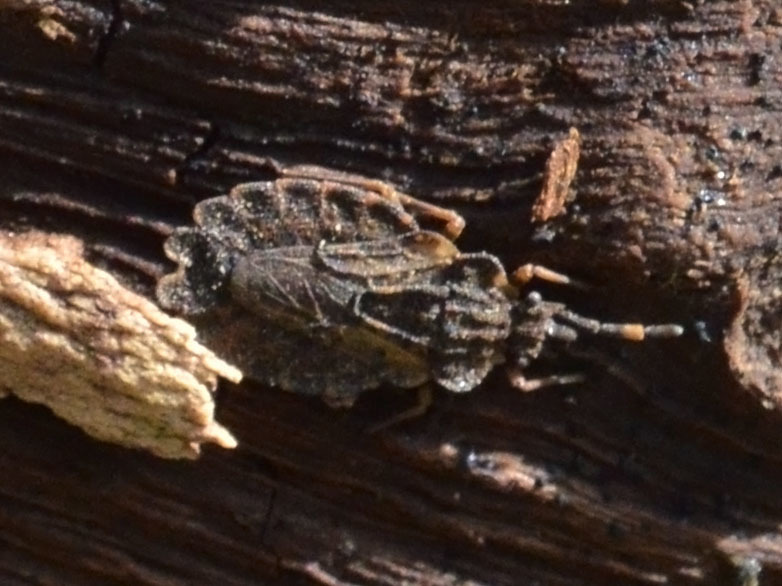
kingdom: Animalia
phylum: Arthropoda
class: Insecta
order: Hemiptera
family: Aradidae
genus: Aradus
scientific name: Aradus versicolor
